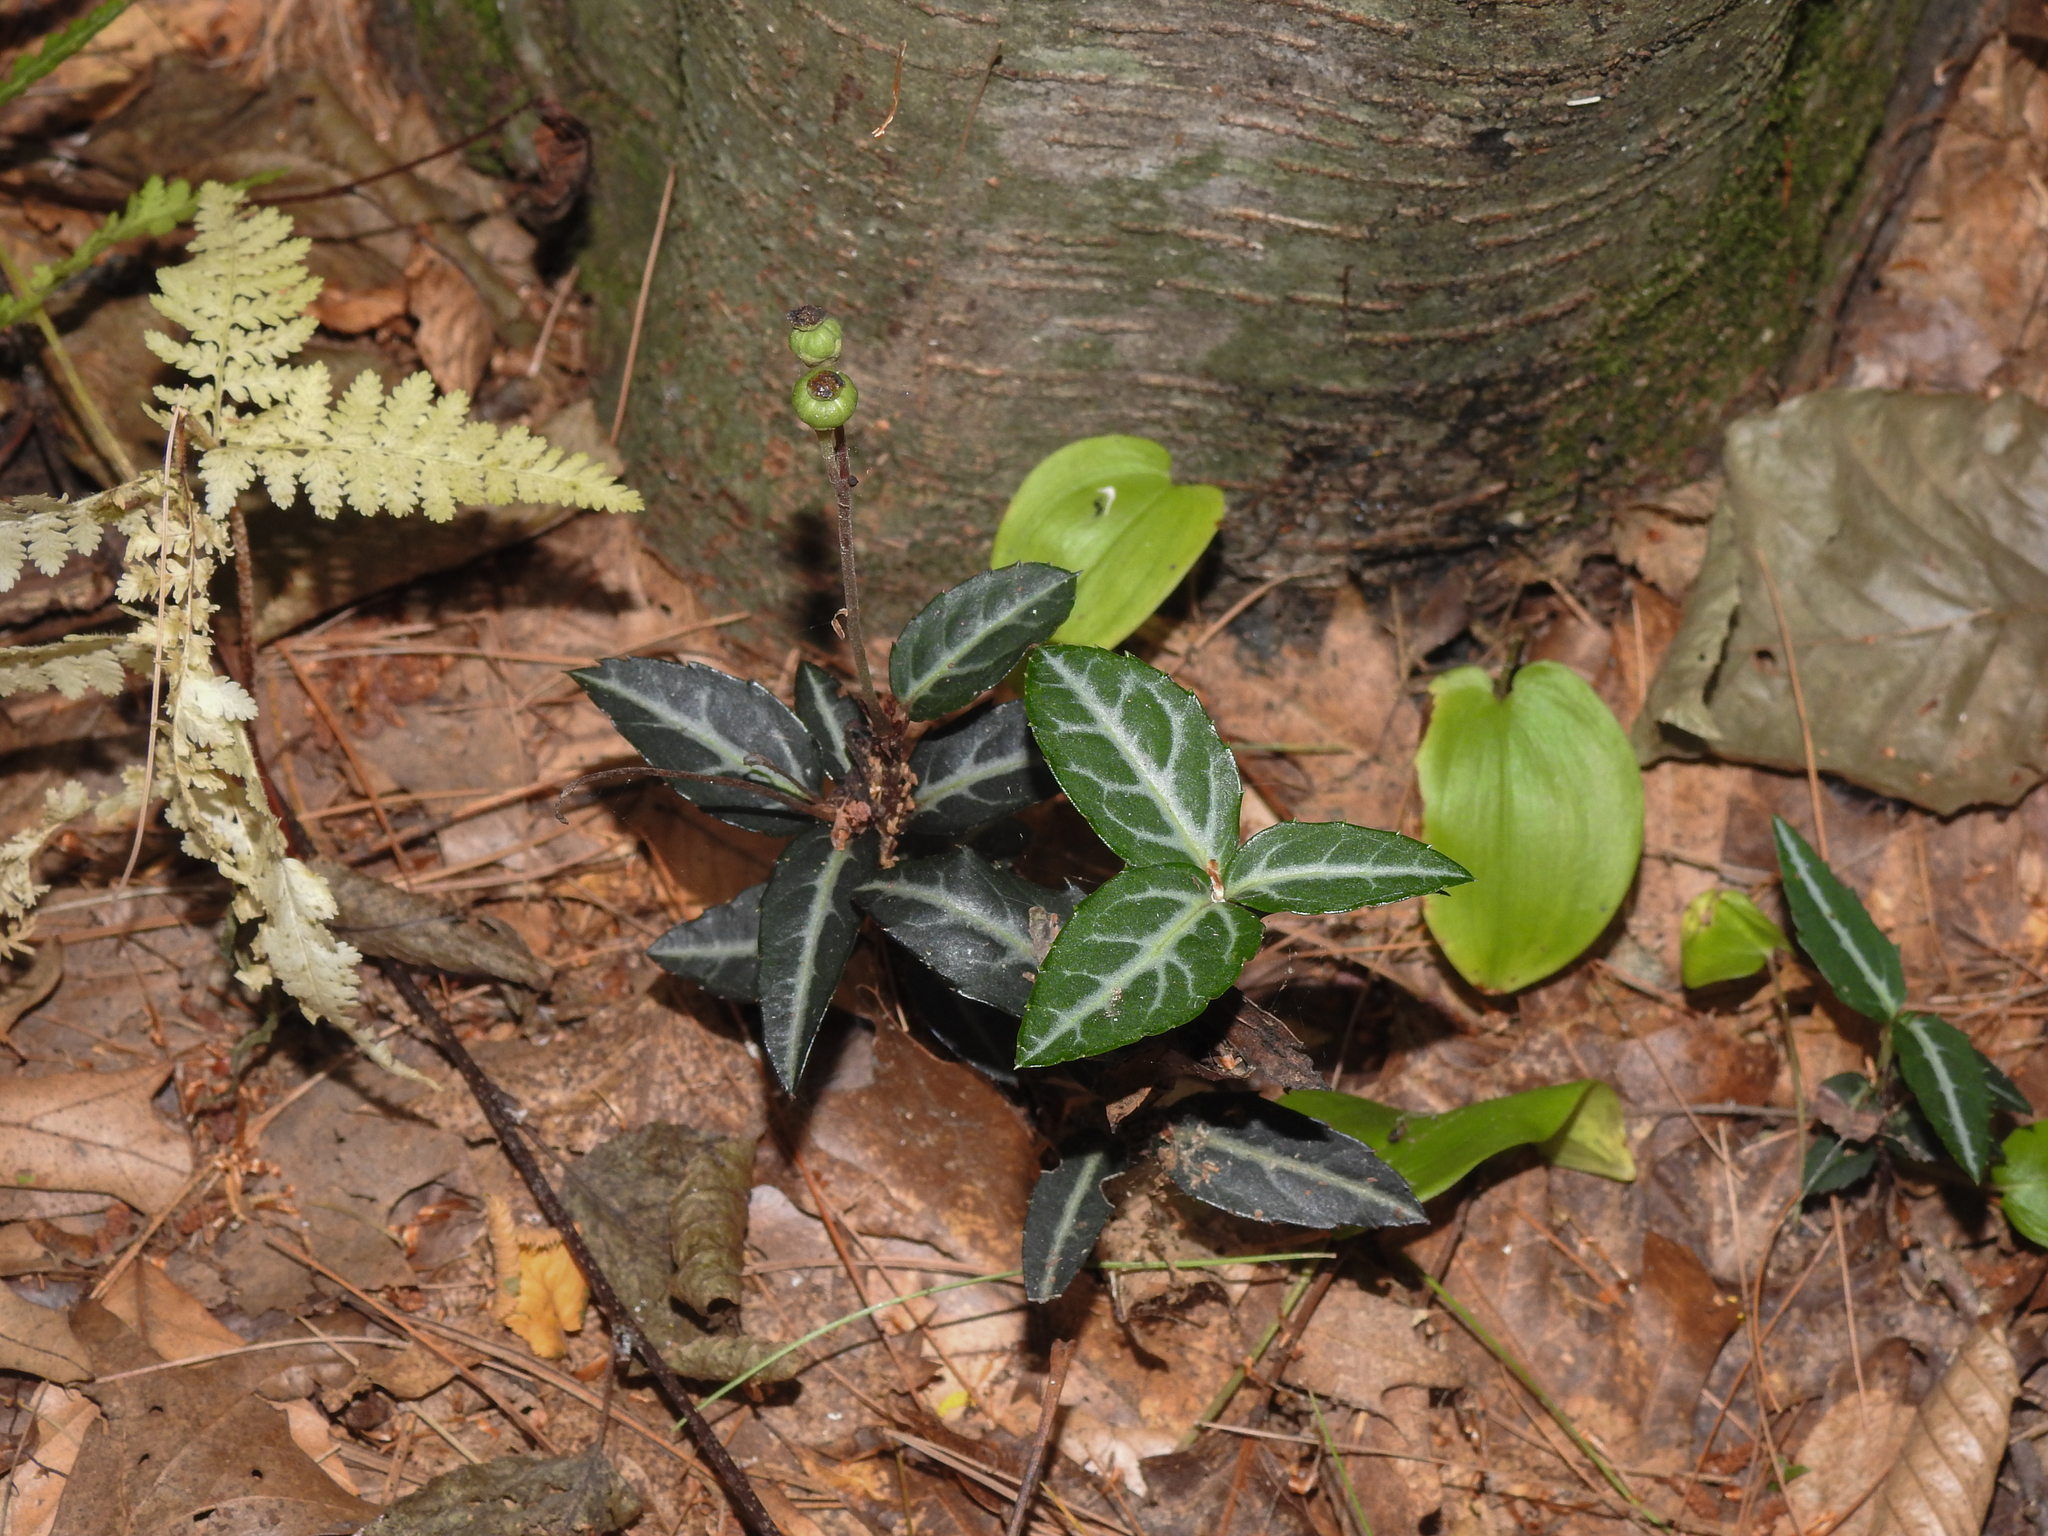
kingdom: Plantae
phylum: Tracheophyta
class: Magnoliopsida
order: Ericales
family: Ericaceae
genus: Chimaphila
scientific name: Chimaphila maculata
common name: Spotted pipsissewa
